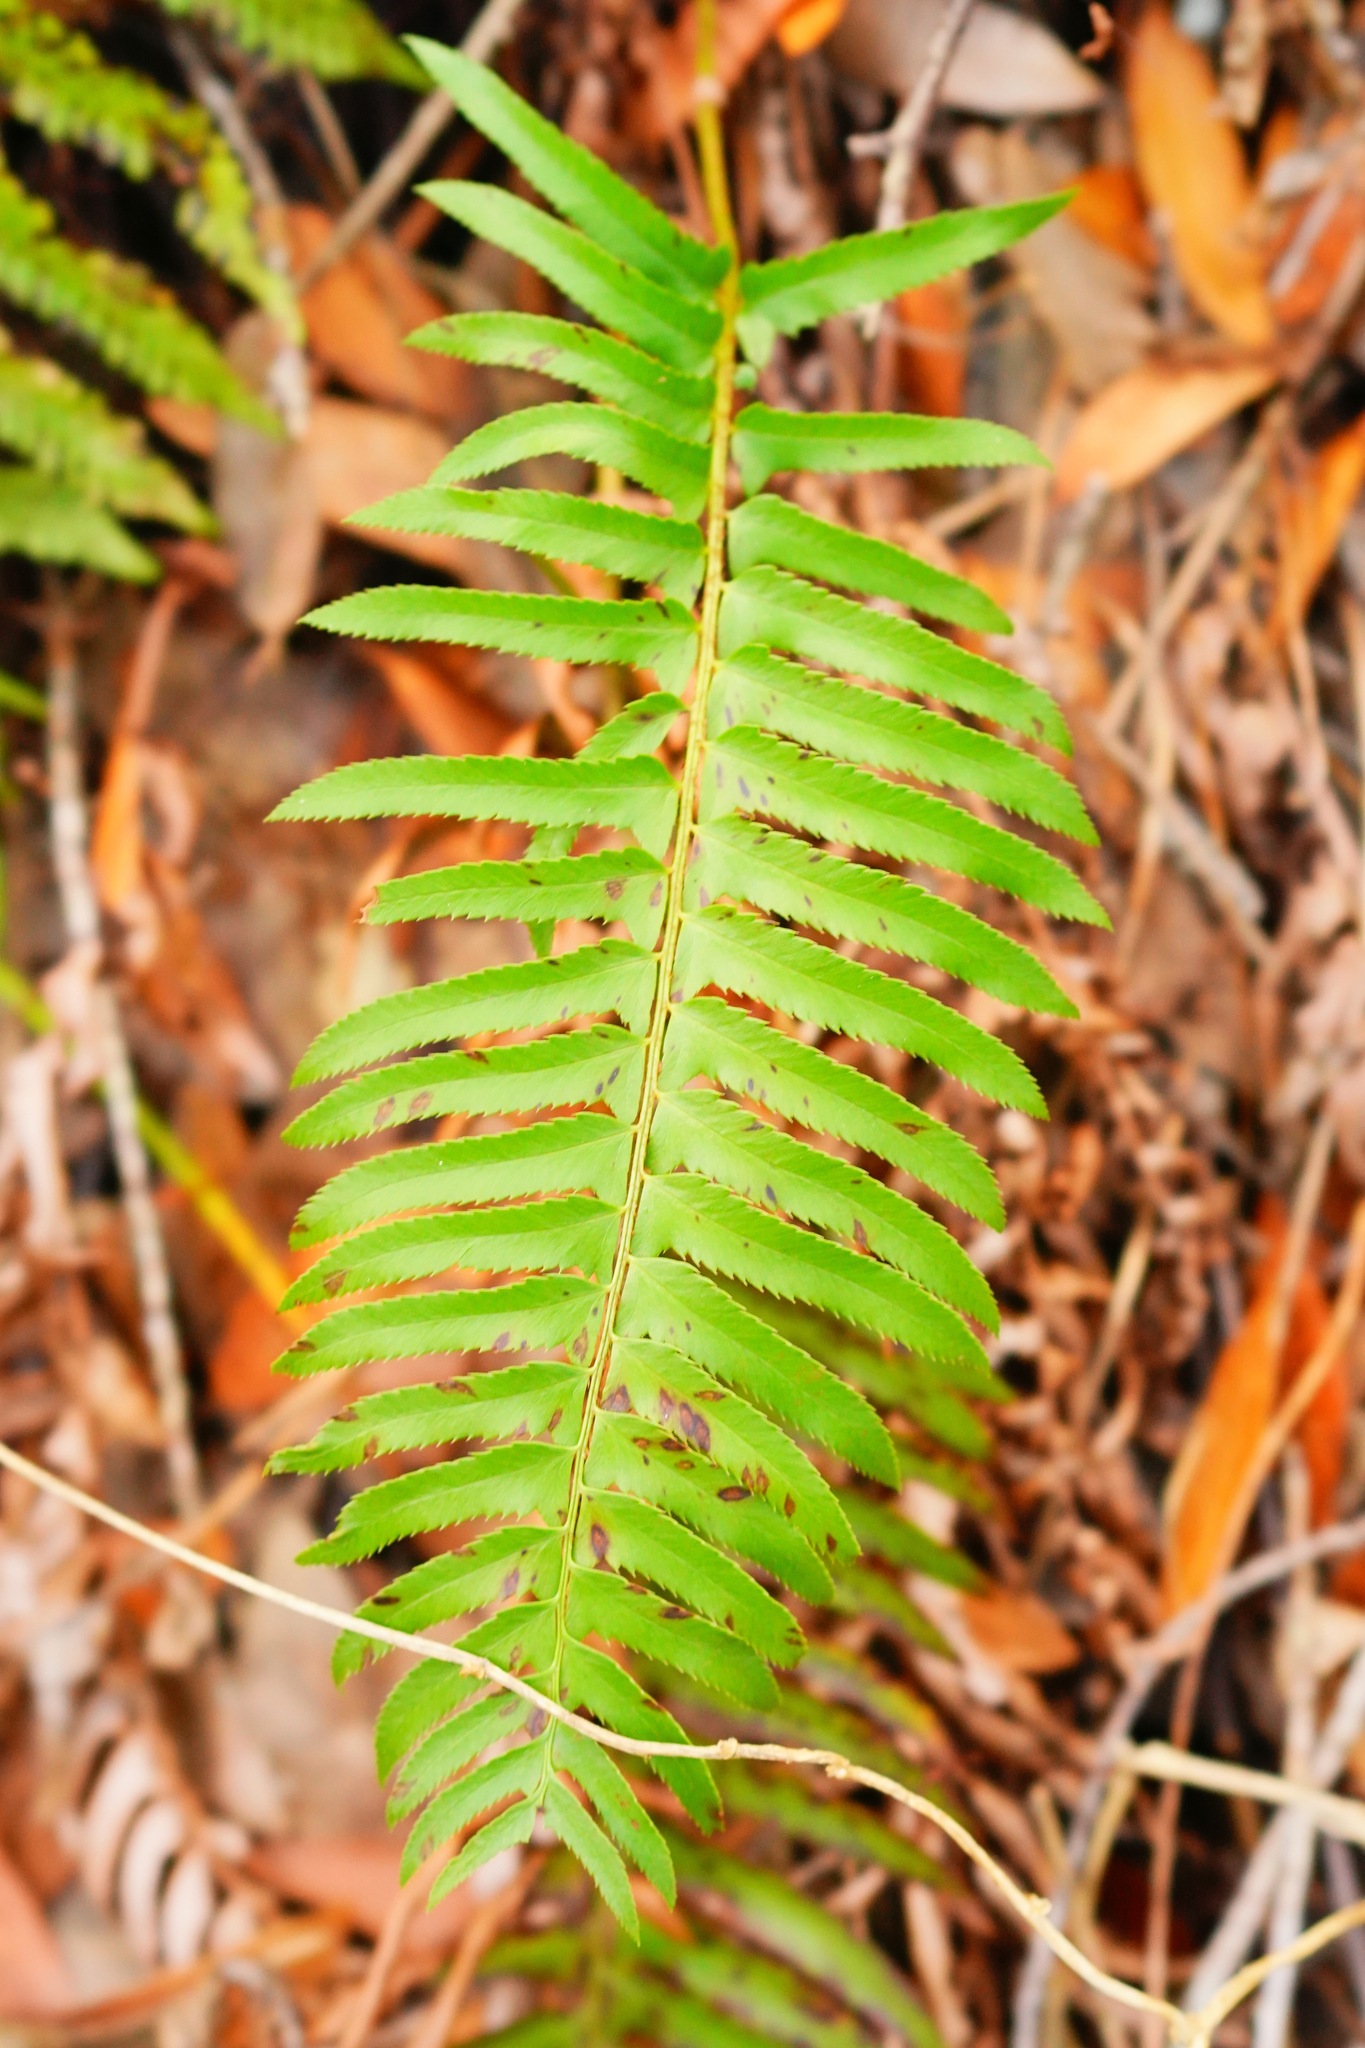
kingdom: Plantae
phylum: Tracheophyta
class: Polypodiopsida
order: Polypodiales
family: Dryopteridaceae
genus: Polystichum
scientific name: Polystichum munitum
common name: Western sword-fern
